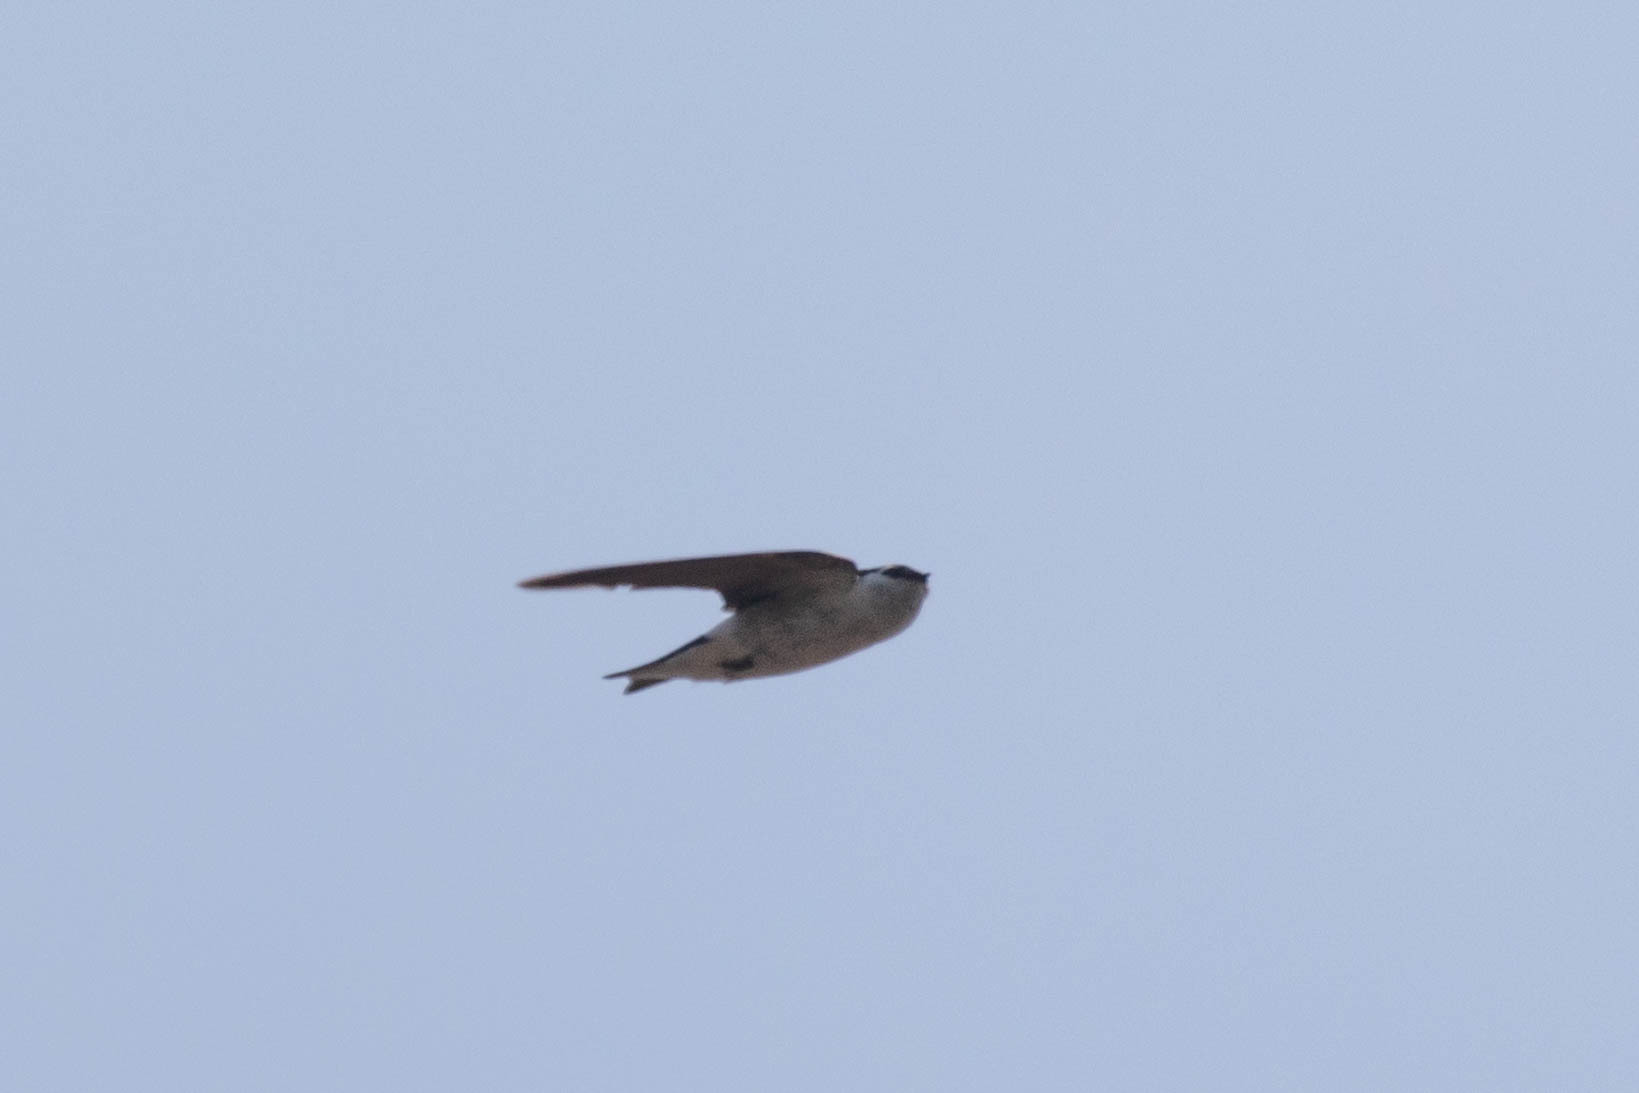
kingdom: Animalia
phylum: Chordata
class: Aves
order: Passeriformes
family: Hirundinidae
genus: Tachycineta
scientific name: Tachycineta thalassina
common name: Violet-green swallow
